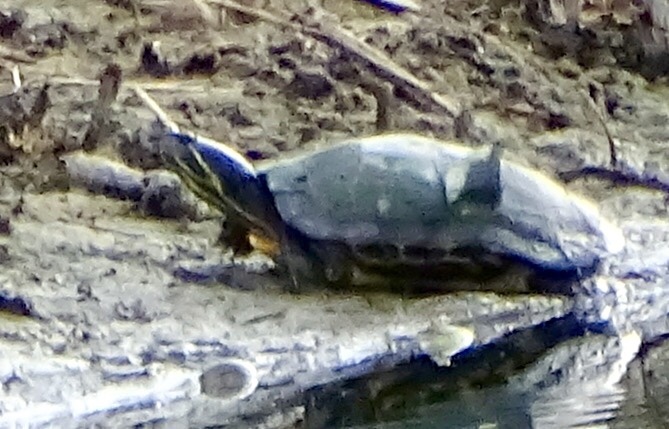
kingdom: Animalia
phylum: Chordata
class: Testudines
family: Emydidae
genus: Trachemys
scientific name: Trachemys scripta
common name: Slider
